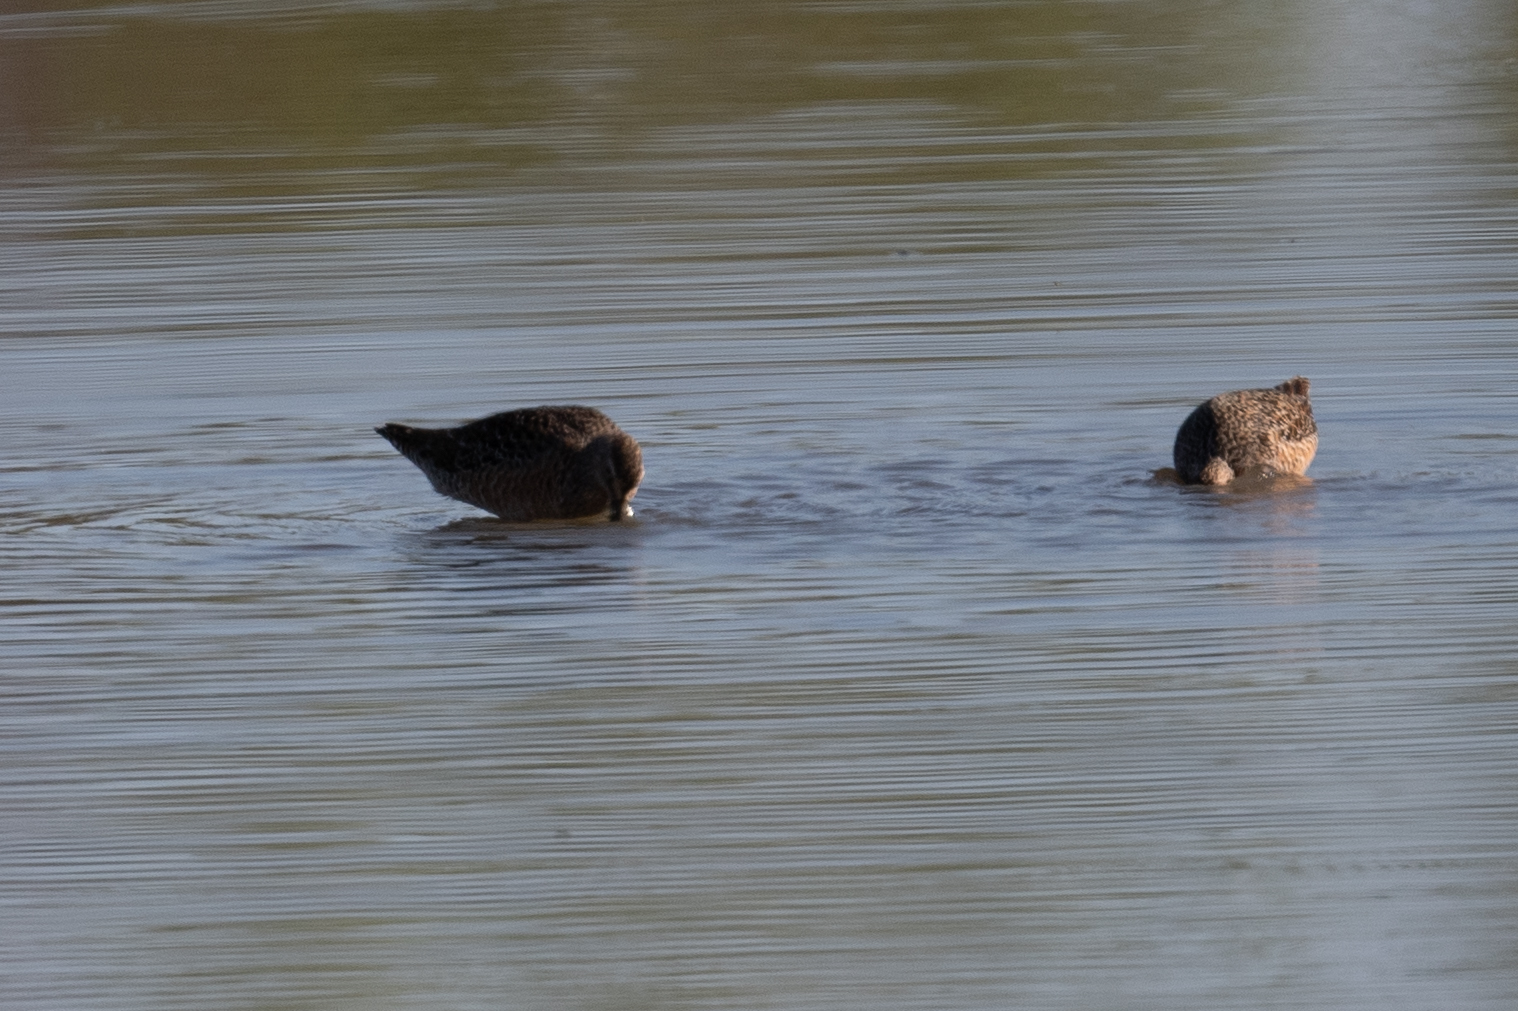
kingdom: Animalia
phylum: Chordata
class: Aves
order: Charadriiformes
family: Scolopacidae
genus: Limnodromus
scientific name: Limnodromus scolopaceus
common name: Long-billed dowitcher
